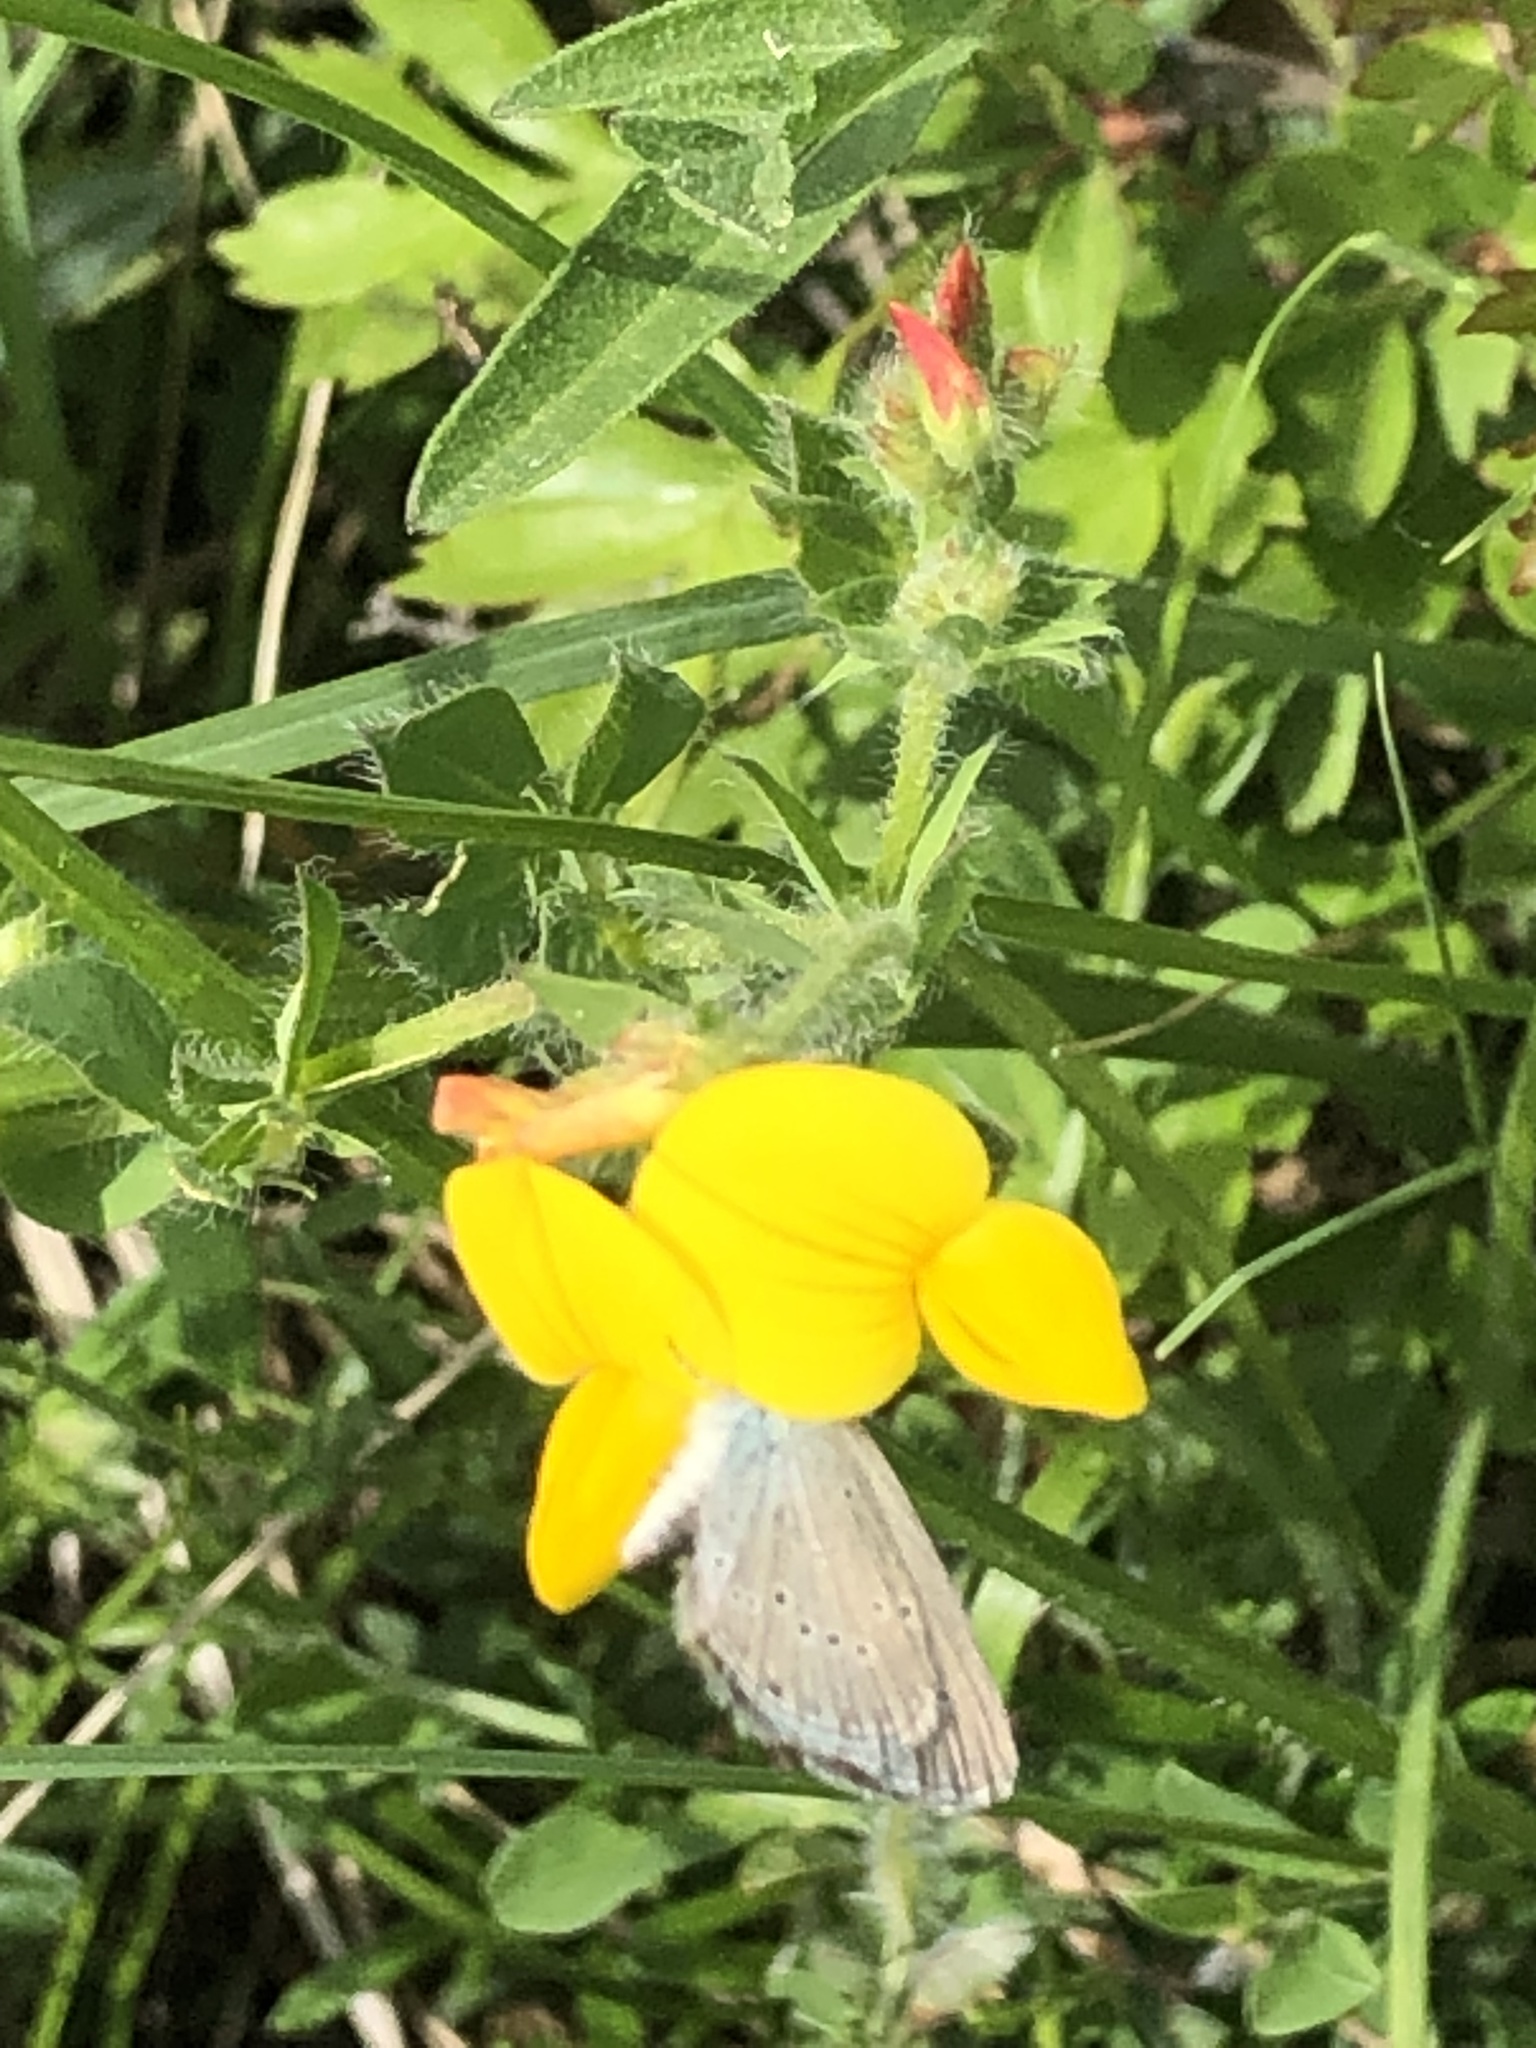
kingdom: Animalia
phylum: Arthropoda
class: Insecta
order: Lepidoptera
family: Lycaenidae
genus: Cupido
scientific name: Cupido minimus
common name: Small blue
